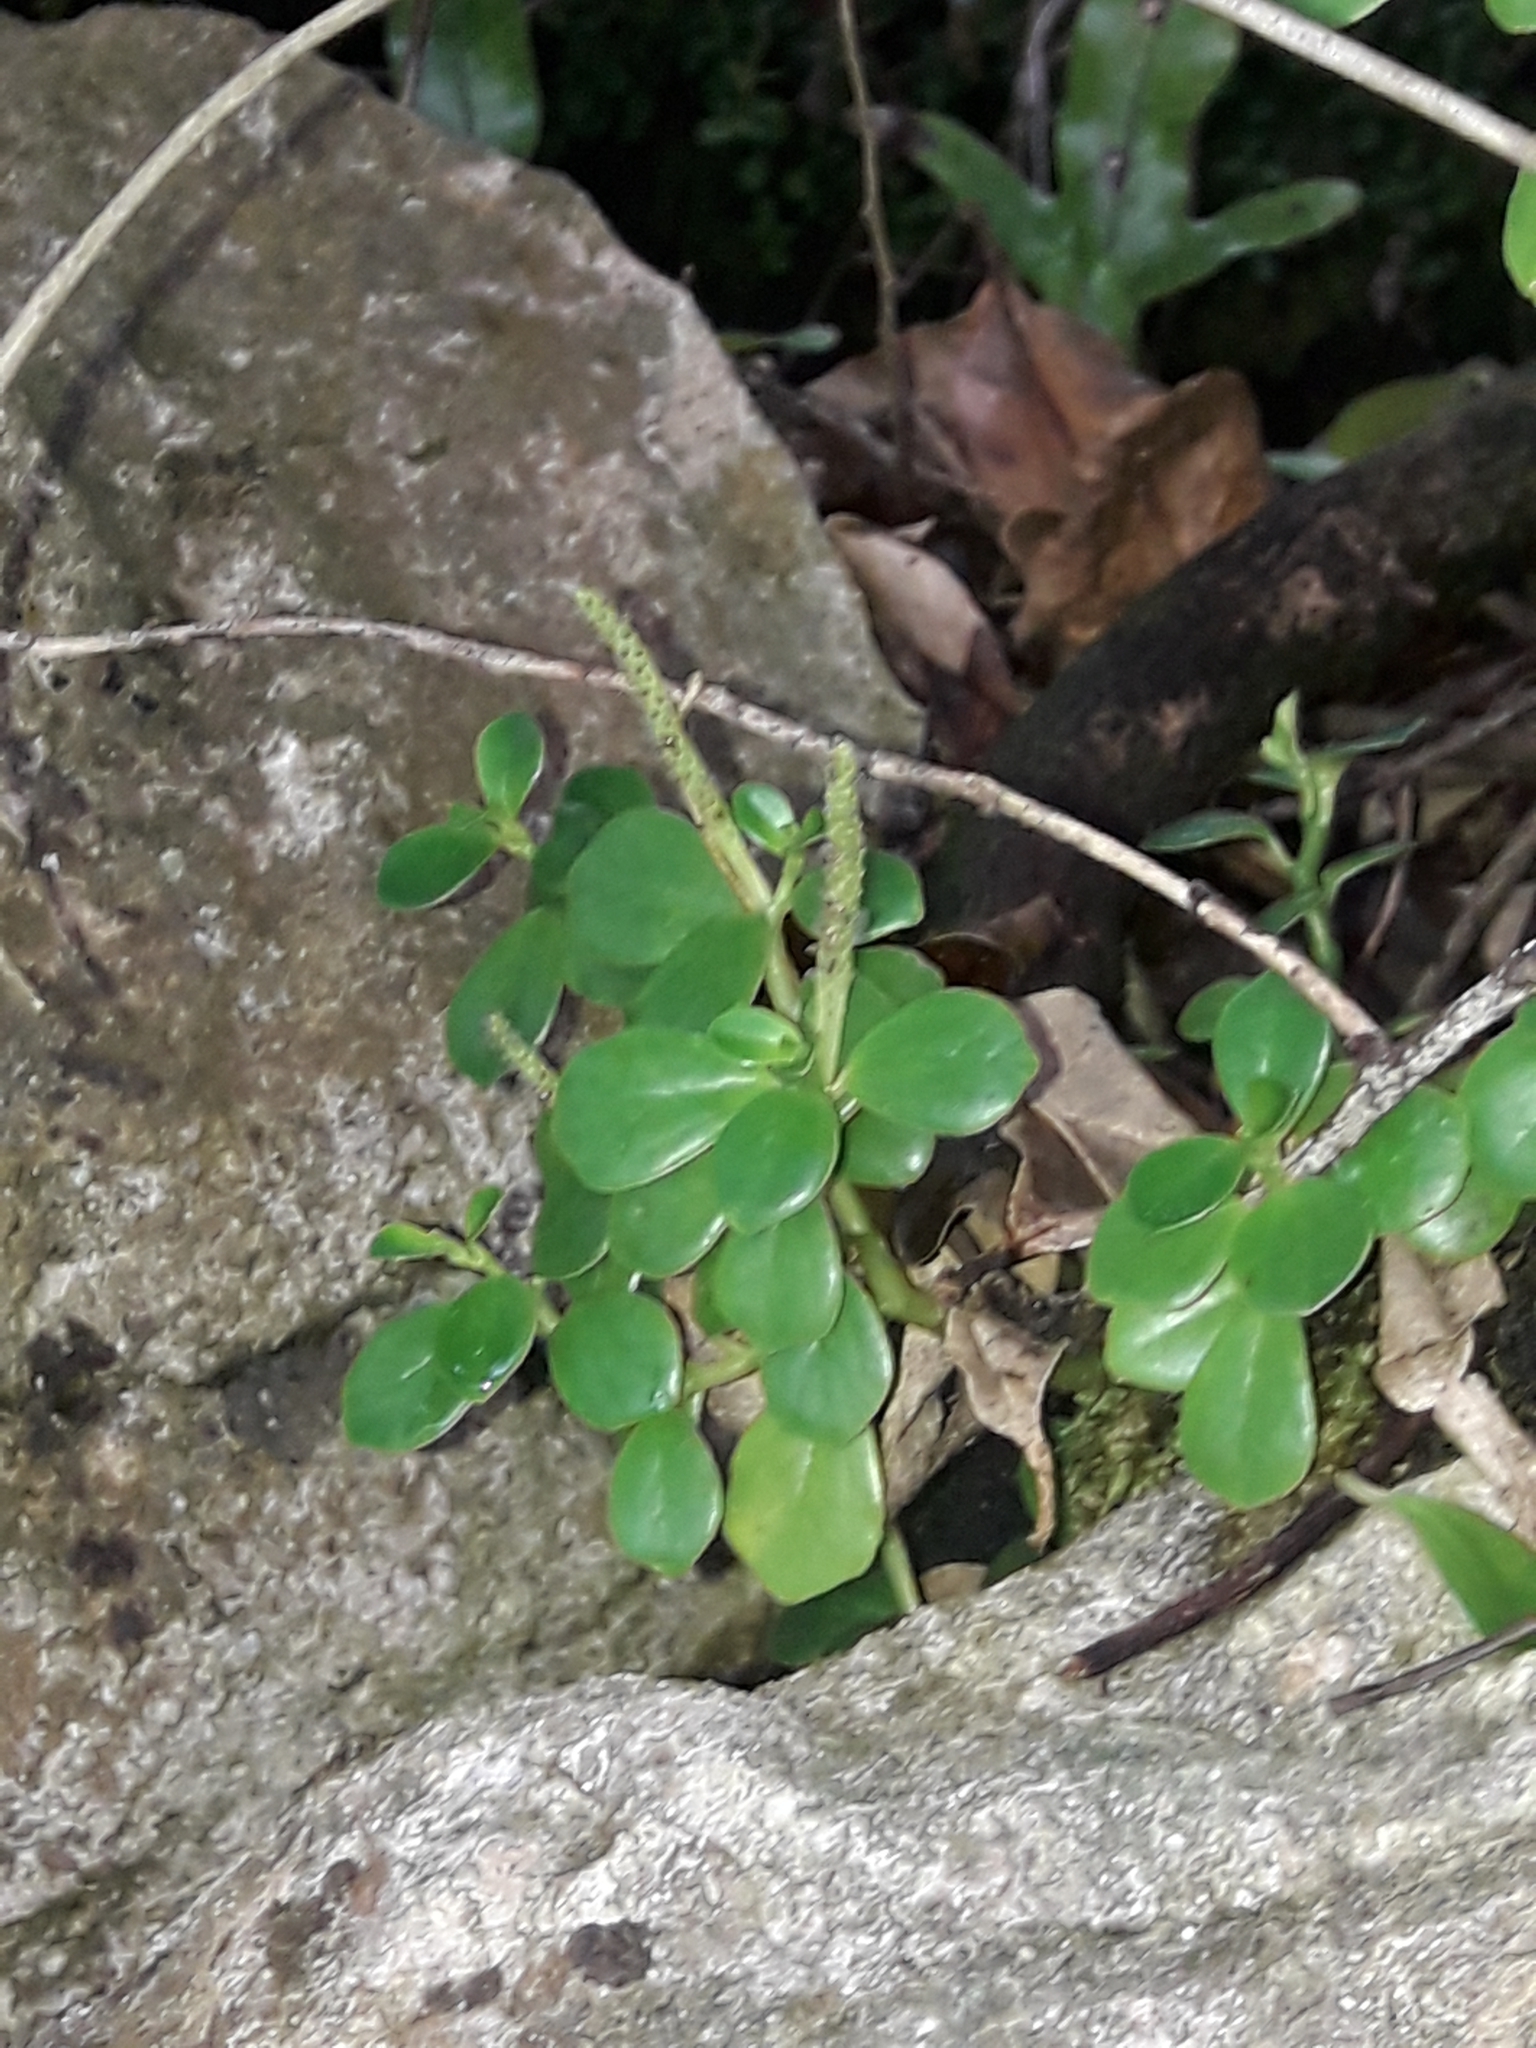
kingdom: Plantae
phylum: Tracheophyta
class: Magnoliopsida
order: Piperales
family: Piperaceae
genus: Peperomia
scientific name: Peperomia urvilleana
